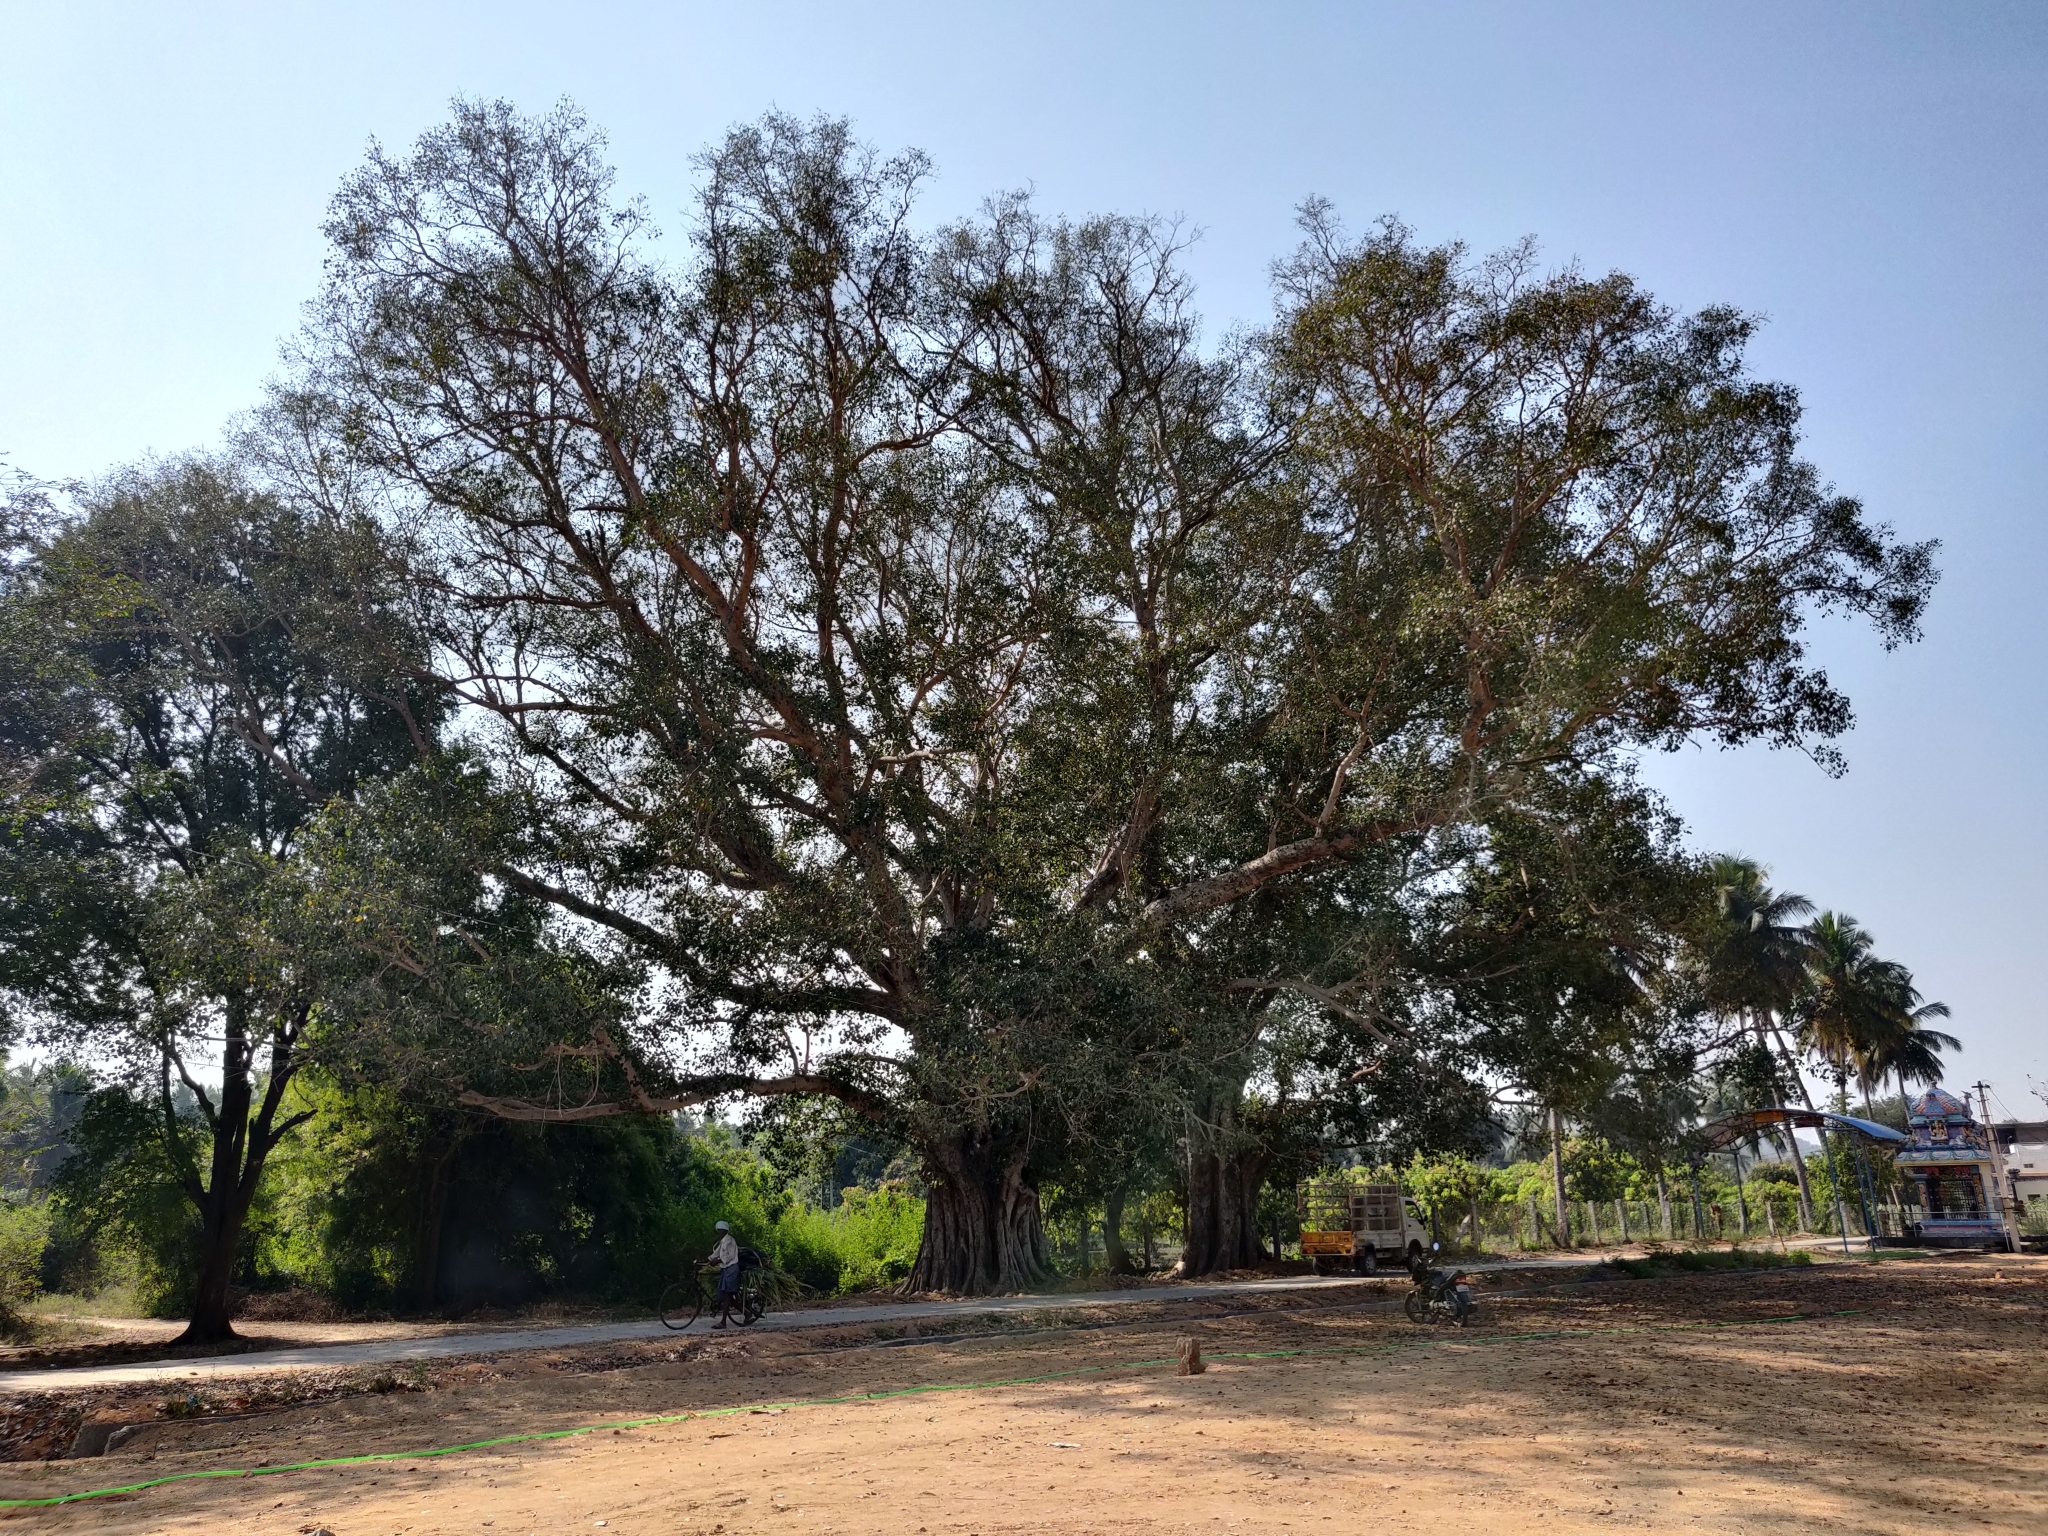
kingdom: Plantae
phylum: Tracheophyta
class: Magnoliopsida
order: Rosales
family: Moraceae
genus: Ficus
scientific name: Ficus benghalensis
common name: Indian banyan
